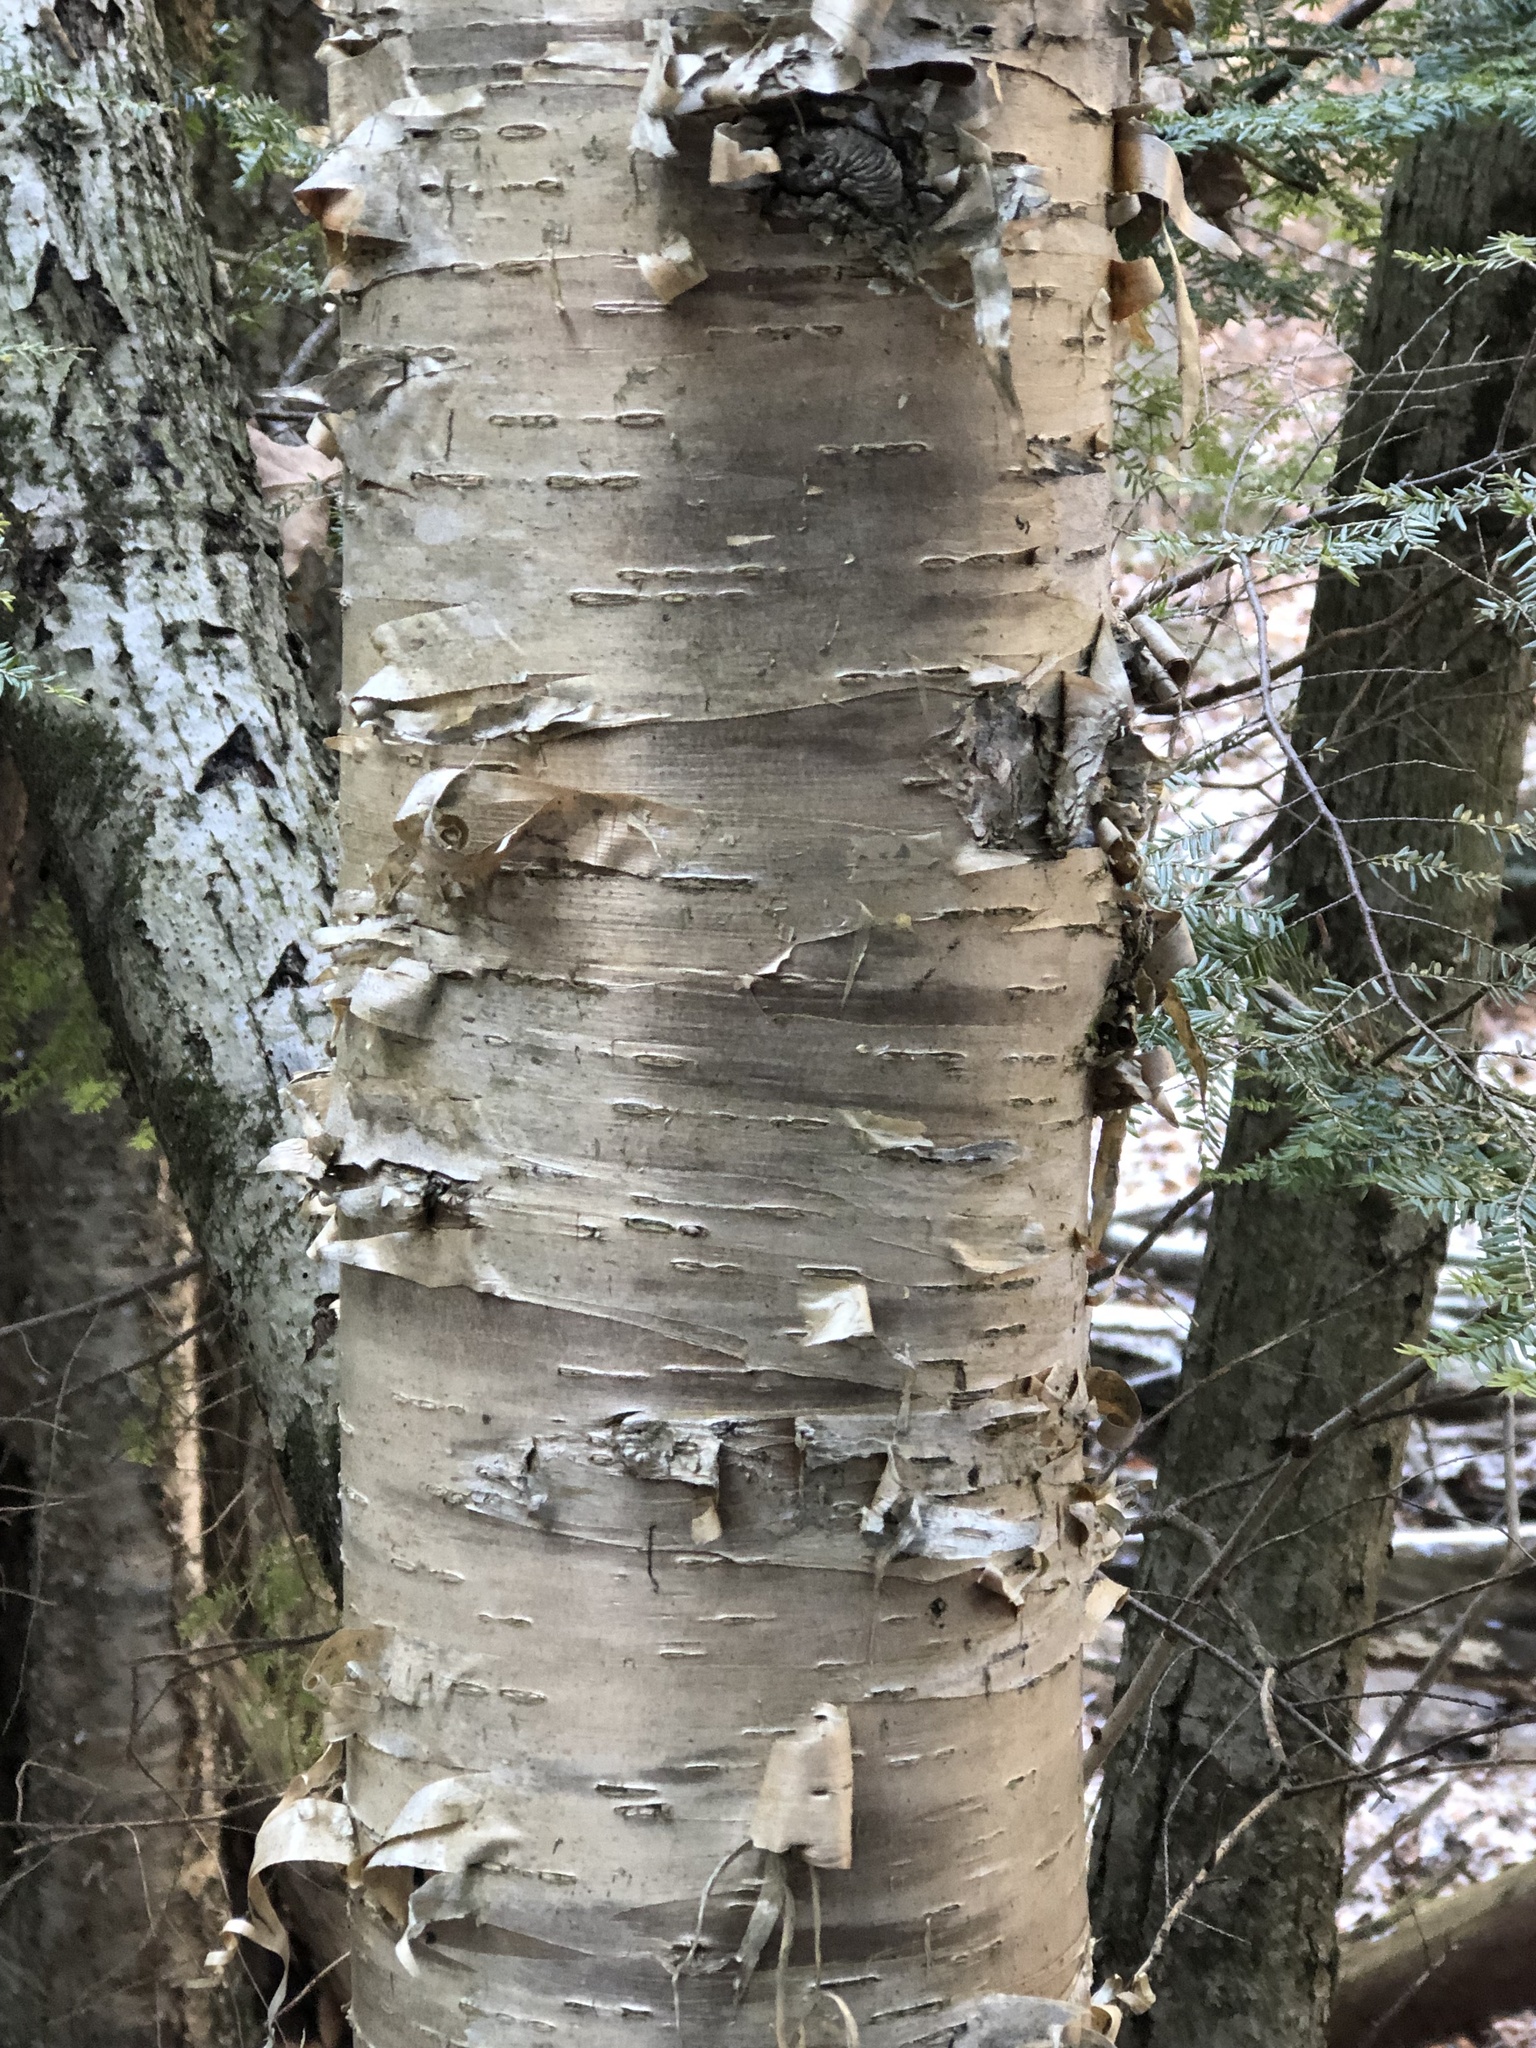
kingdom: Plantae
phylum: Tracheophyta
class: Magnoliopsida
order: Fagales
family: Betulaceae
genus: Betula
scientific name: Betula alleghaniensis
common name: Yellow birch
